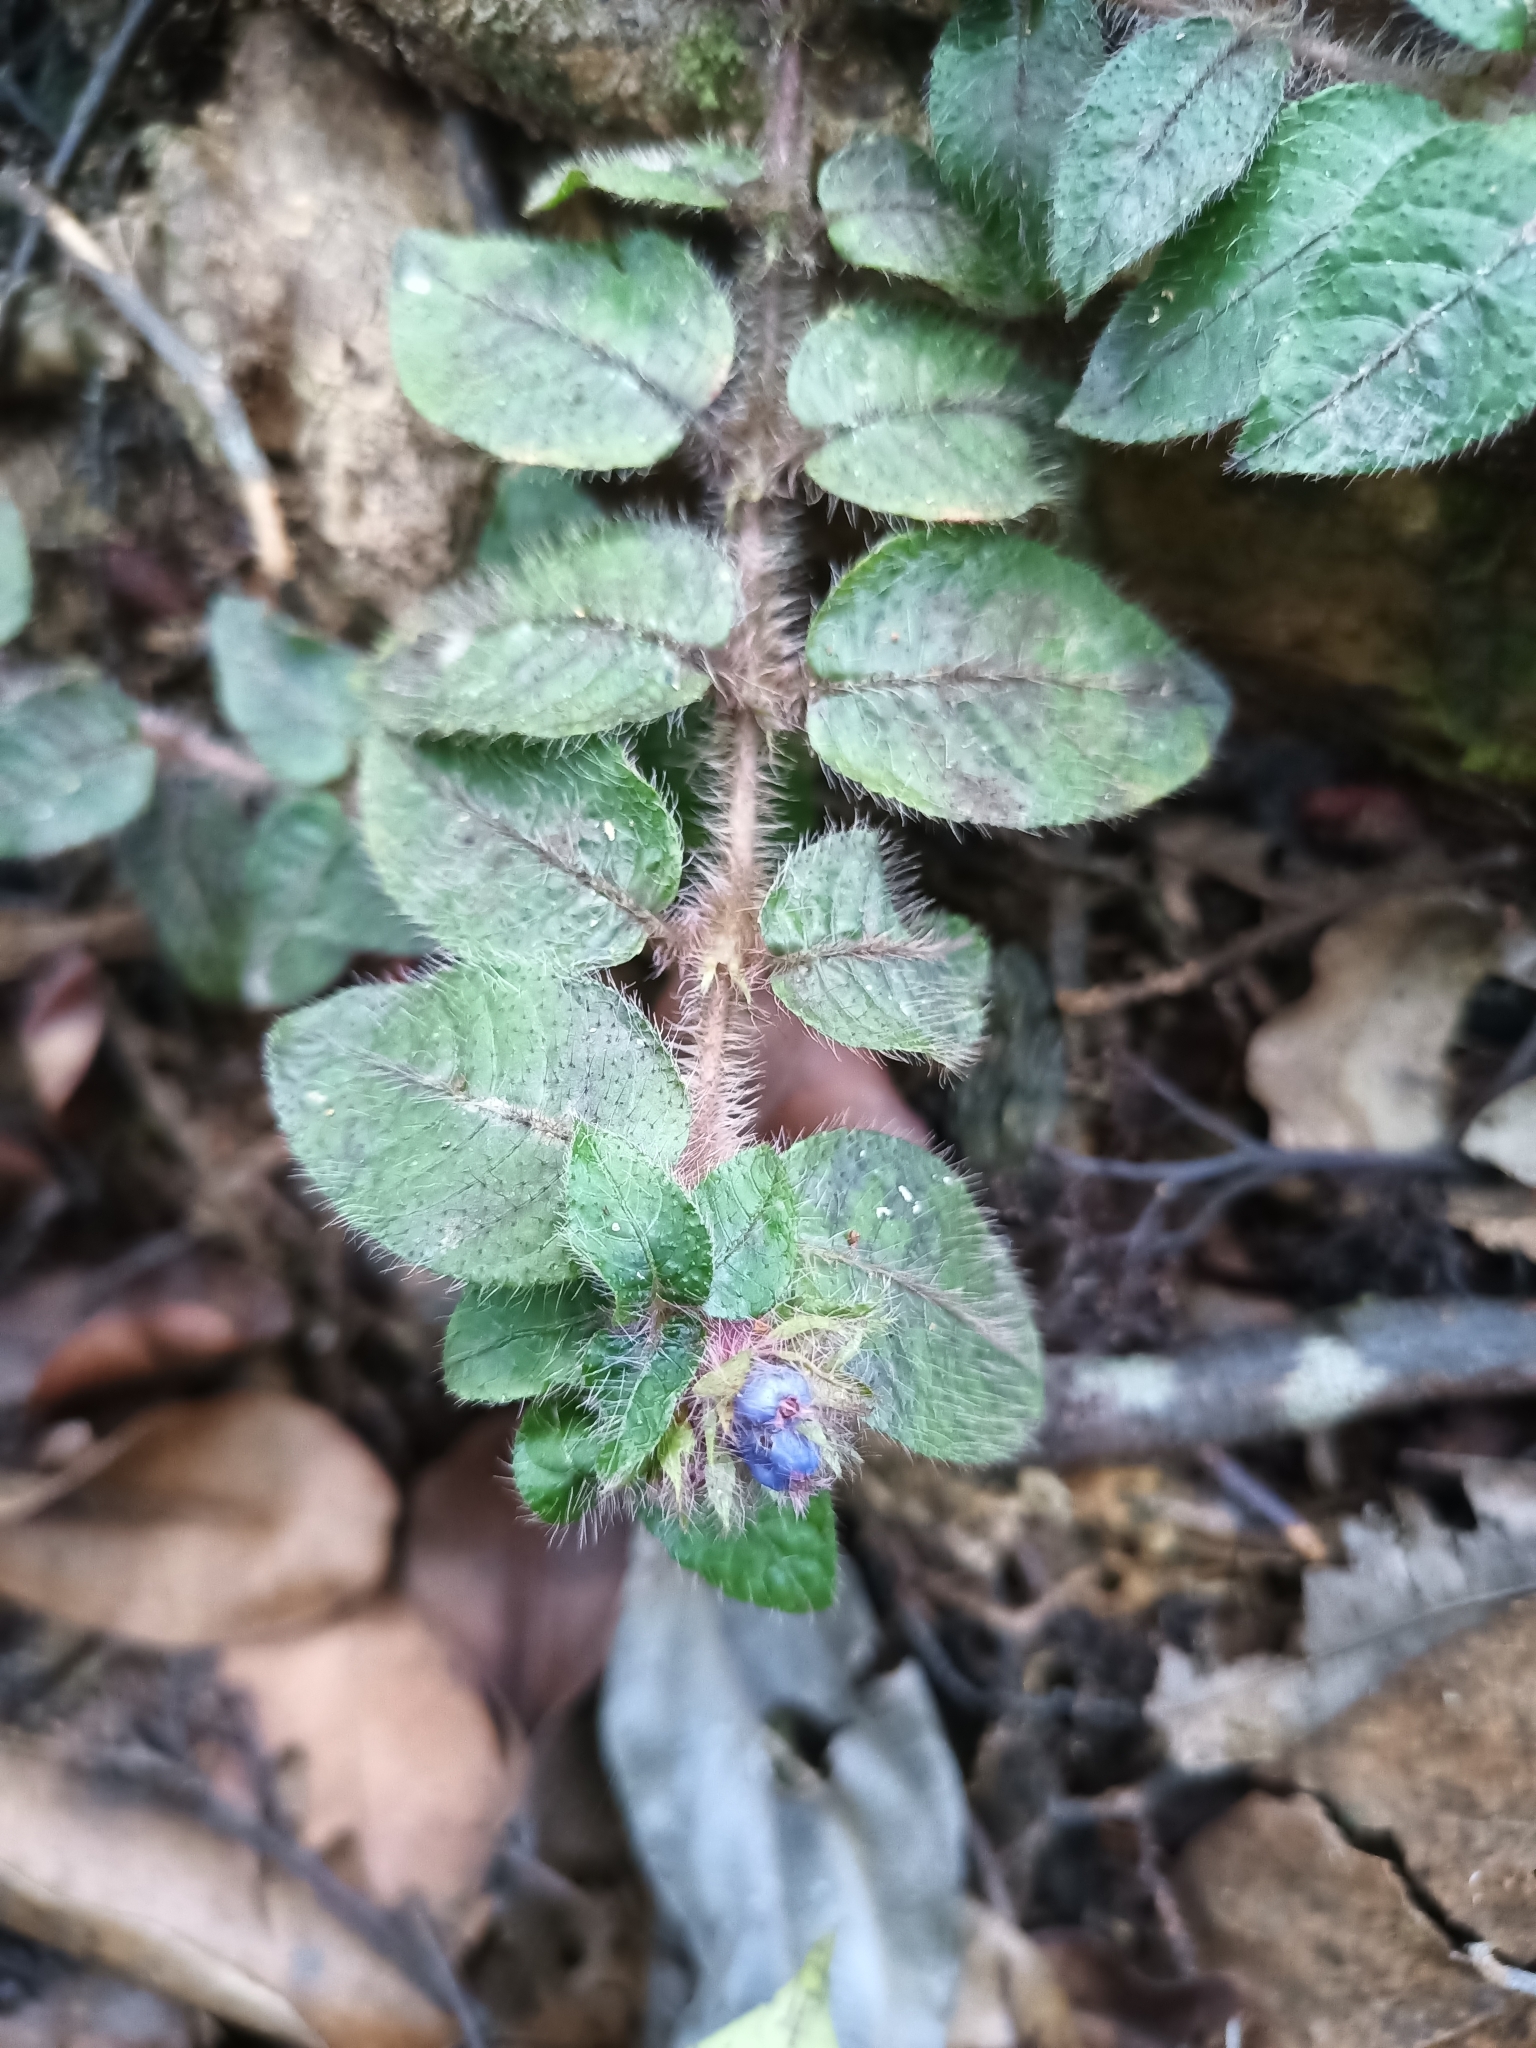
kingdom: Plantae
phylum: Tracheophyta
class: Magnoliopsida
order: Gentianales
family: Rubiaceae
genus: Palicourea
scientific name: Palicourea debilis
